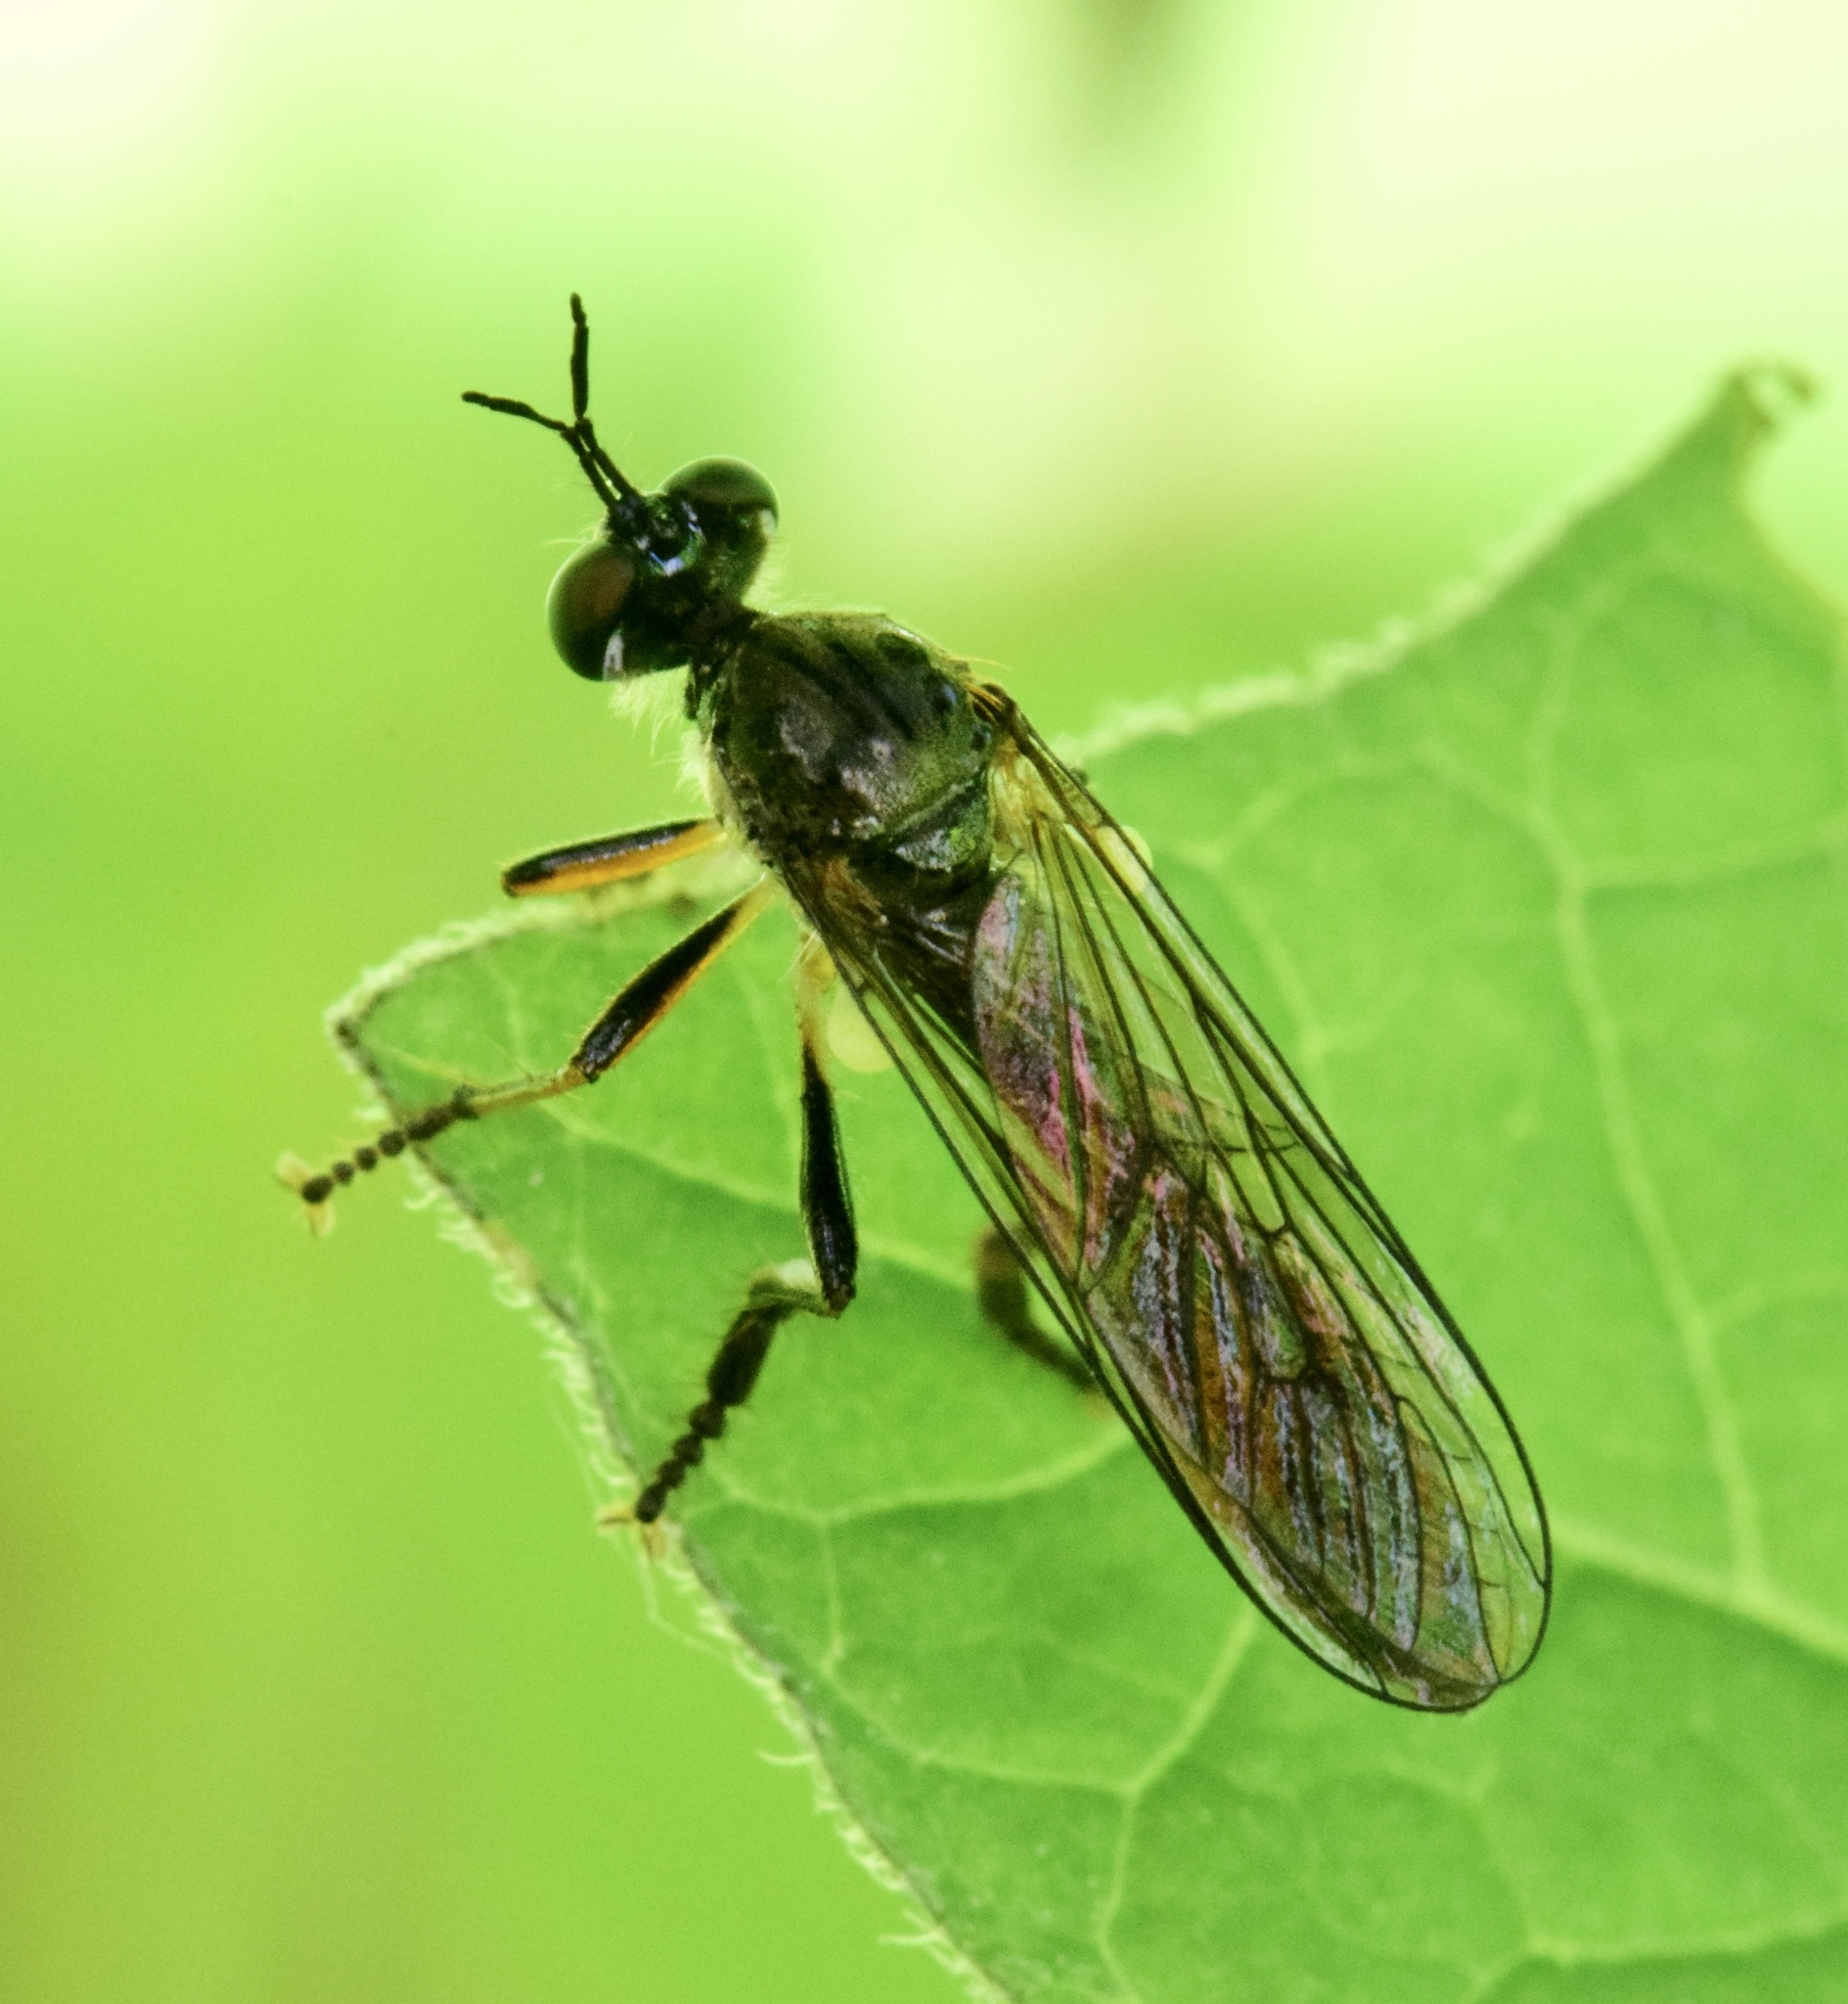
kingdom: Animalia
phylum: Arthropoda
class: Insecta
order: Diptera
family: Asilidae
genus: Dioctria
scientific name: Dioctria hyalipennis
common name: Stripe-legged robberfly
